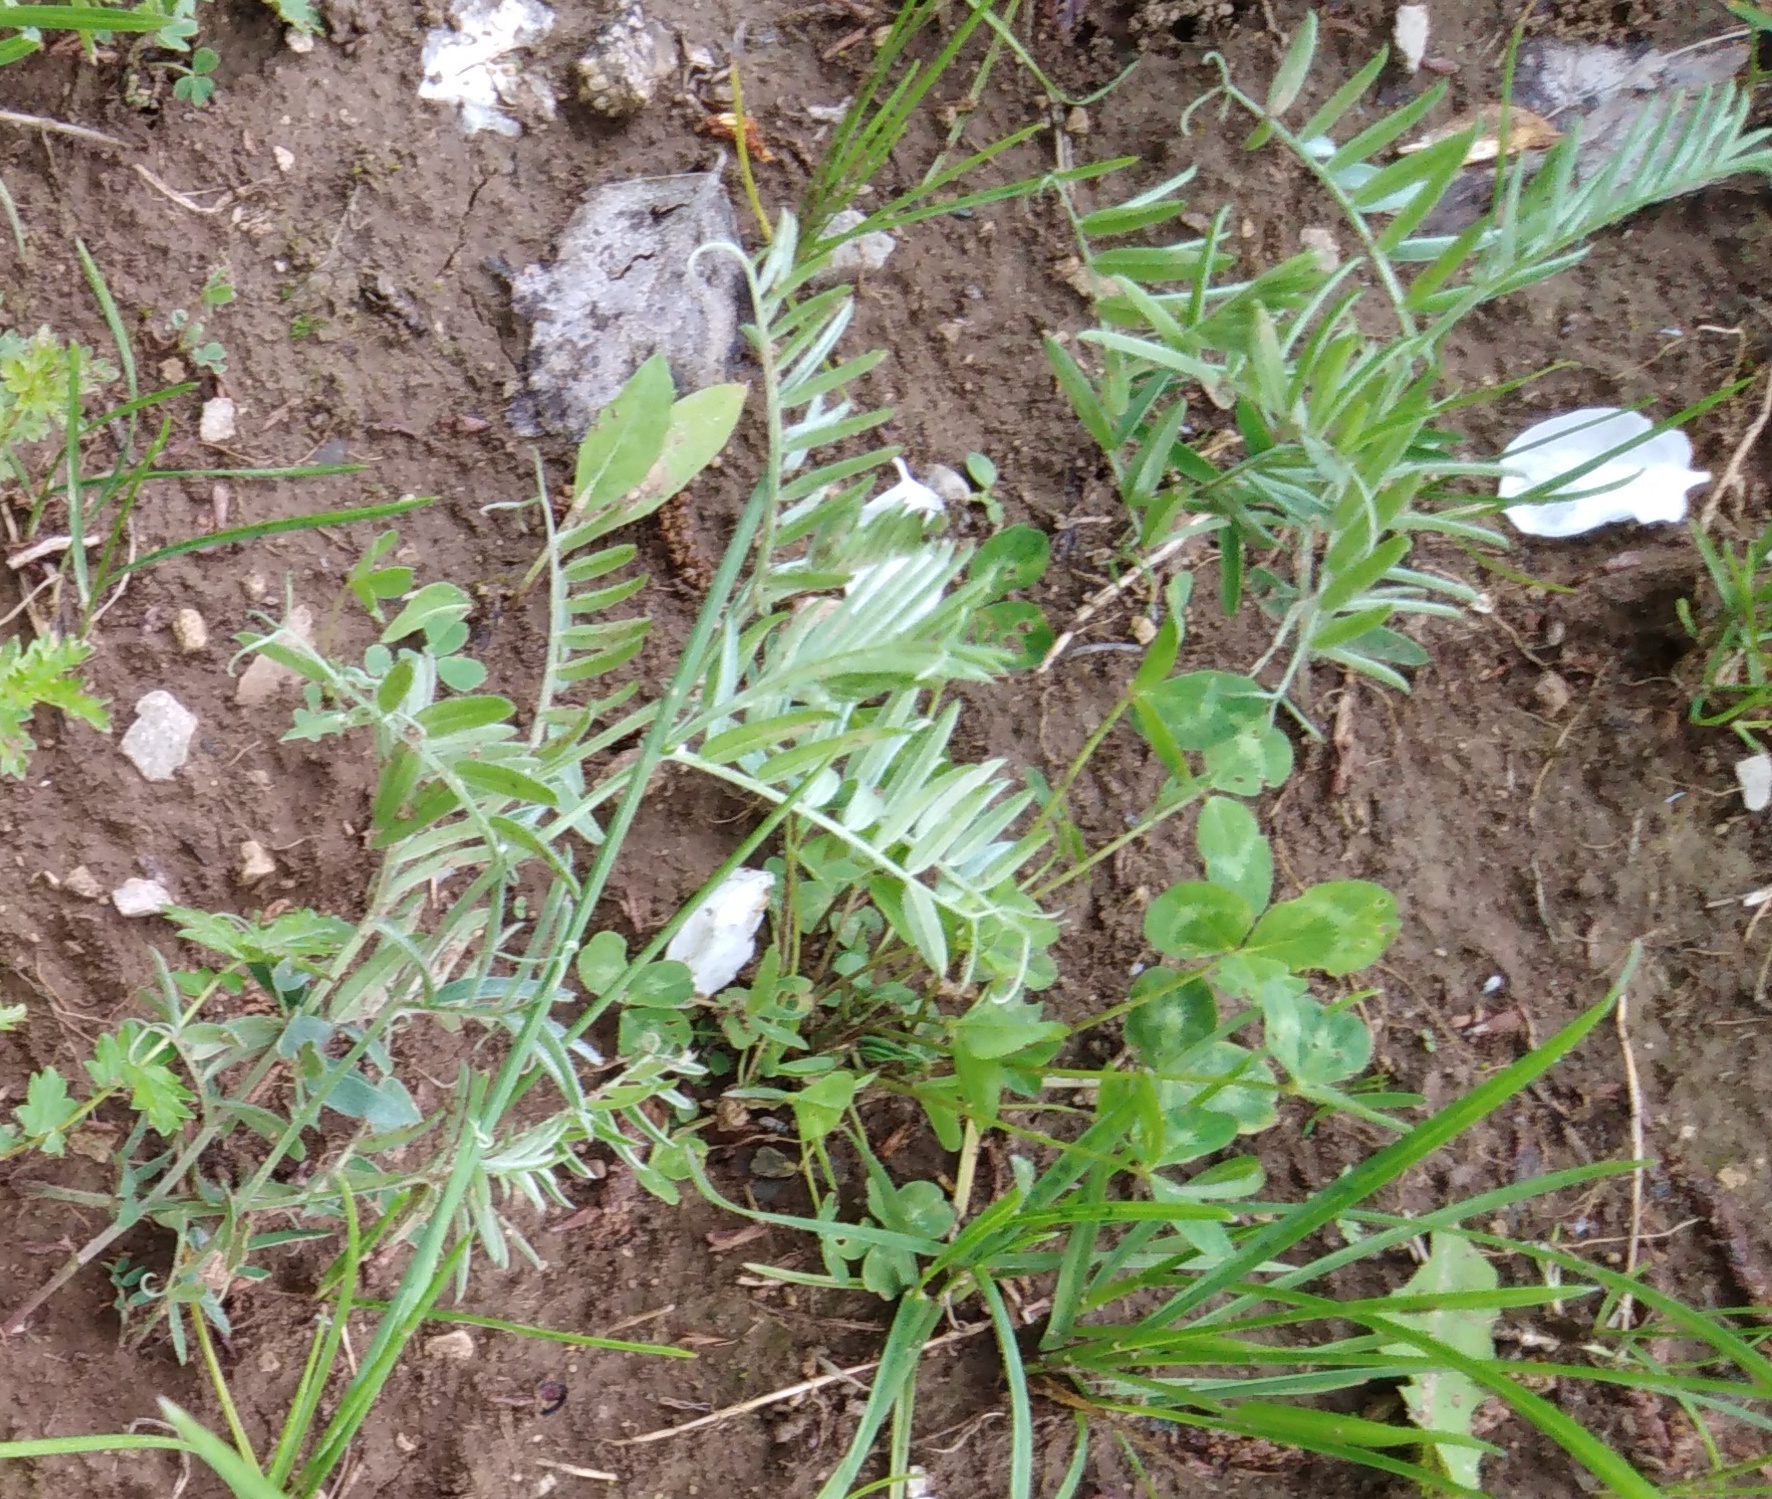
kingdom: Plantae
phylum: Tracheophyta
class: Magnoliopsida
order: Fabales
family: Fabaceae
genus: Vicia
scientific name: Vicia cracca
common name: Bird vetch
